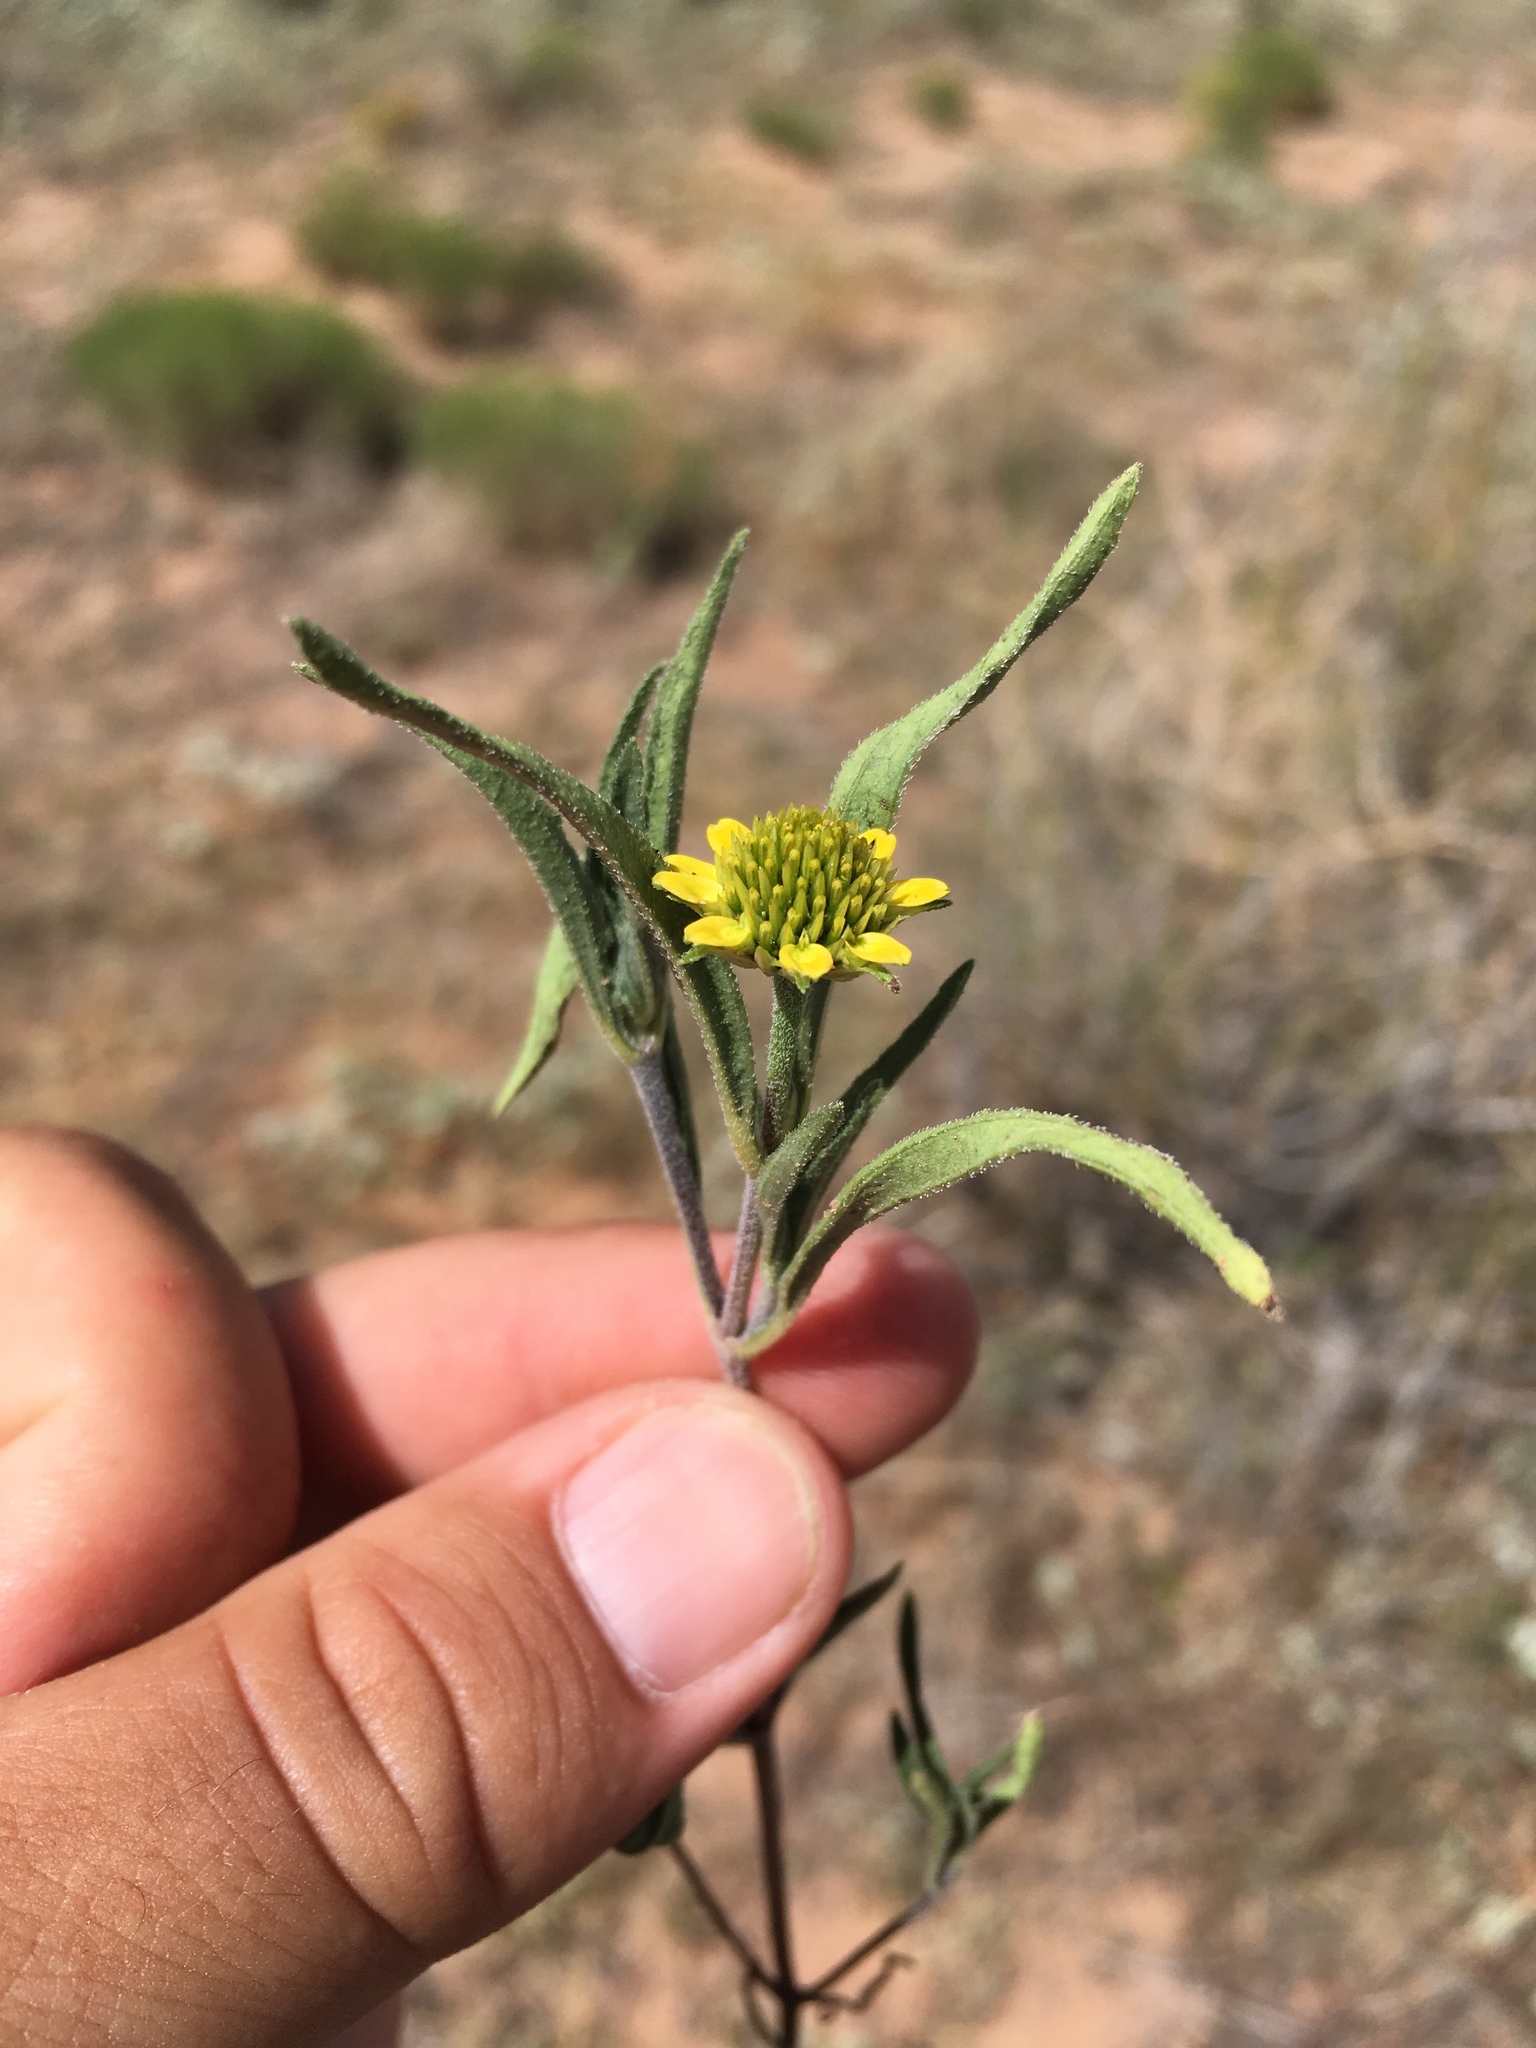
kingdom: Plantae
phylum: Tracheophyta
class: Magnoliopsida
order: Asterales
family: Asteraceae
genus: Sanvitalia
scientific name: Sanvitalia abertii
